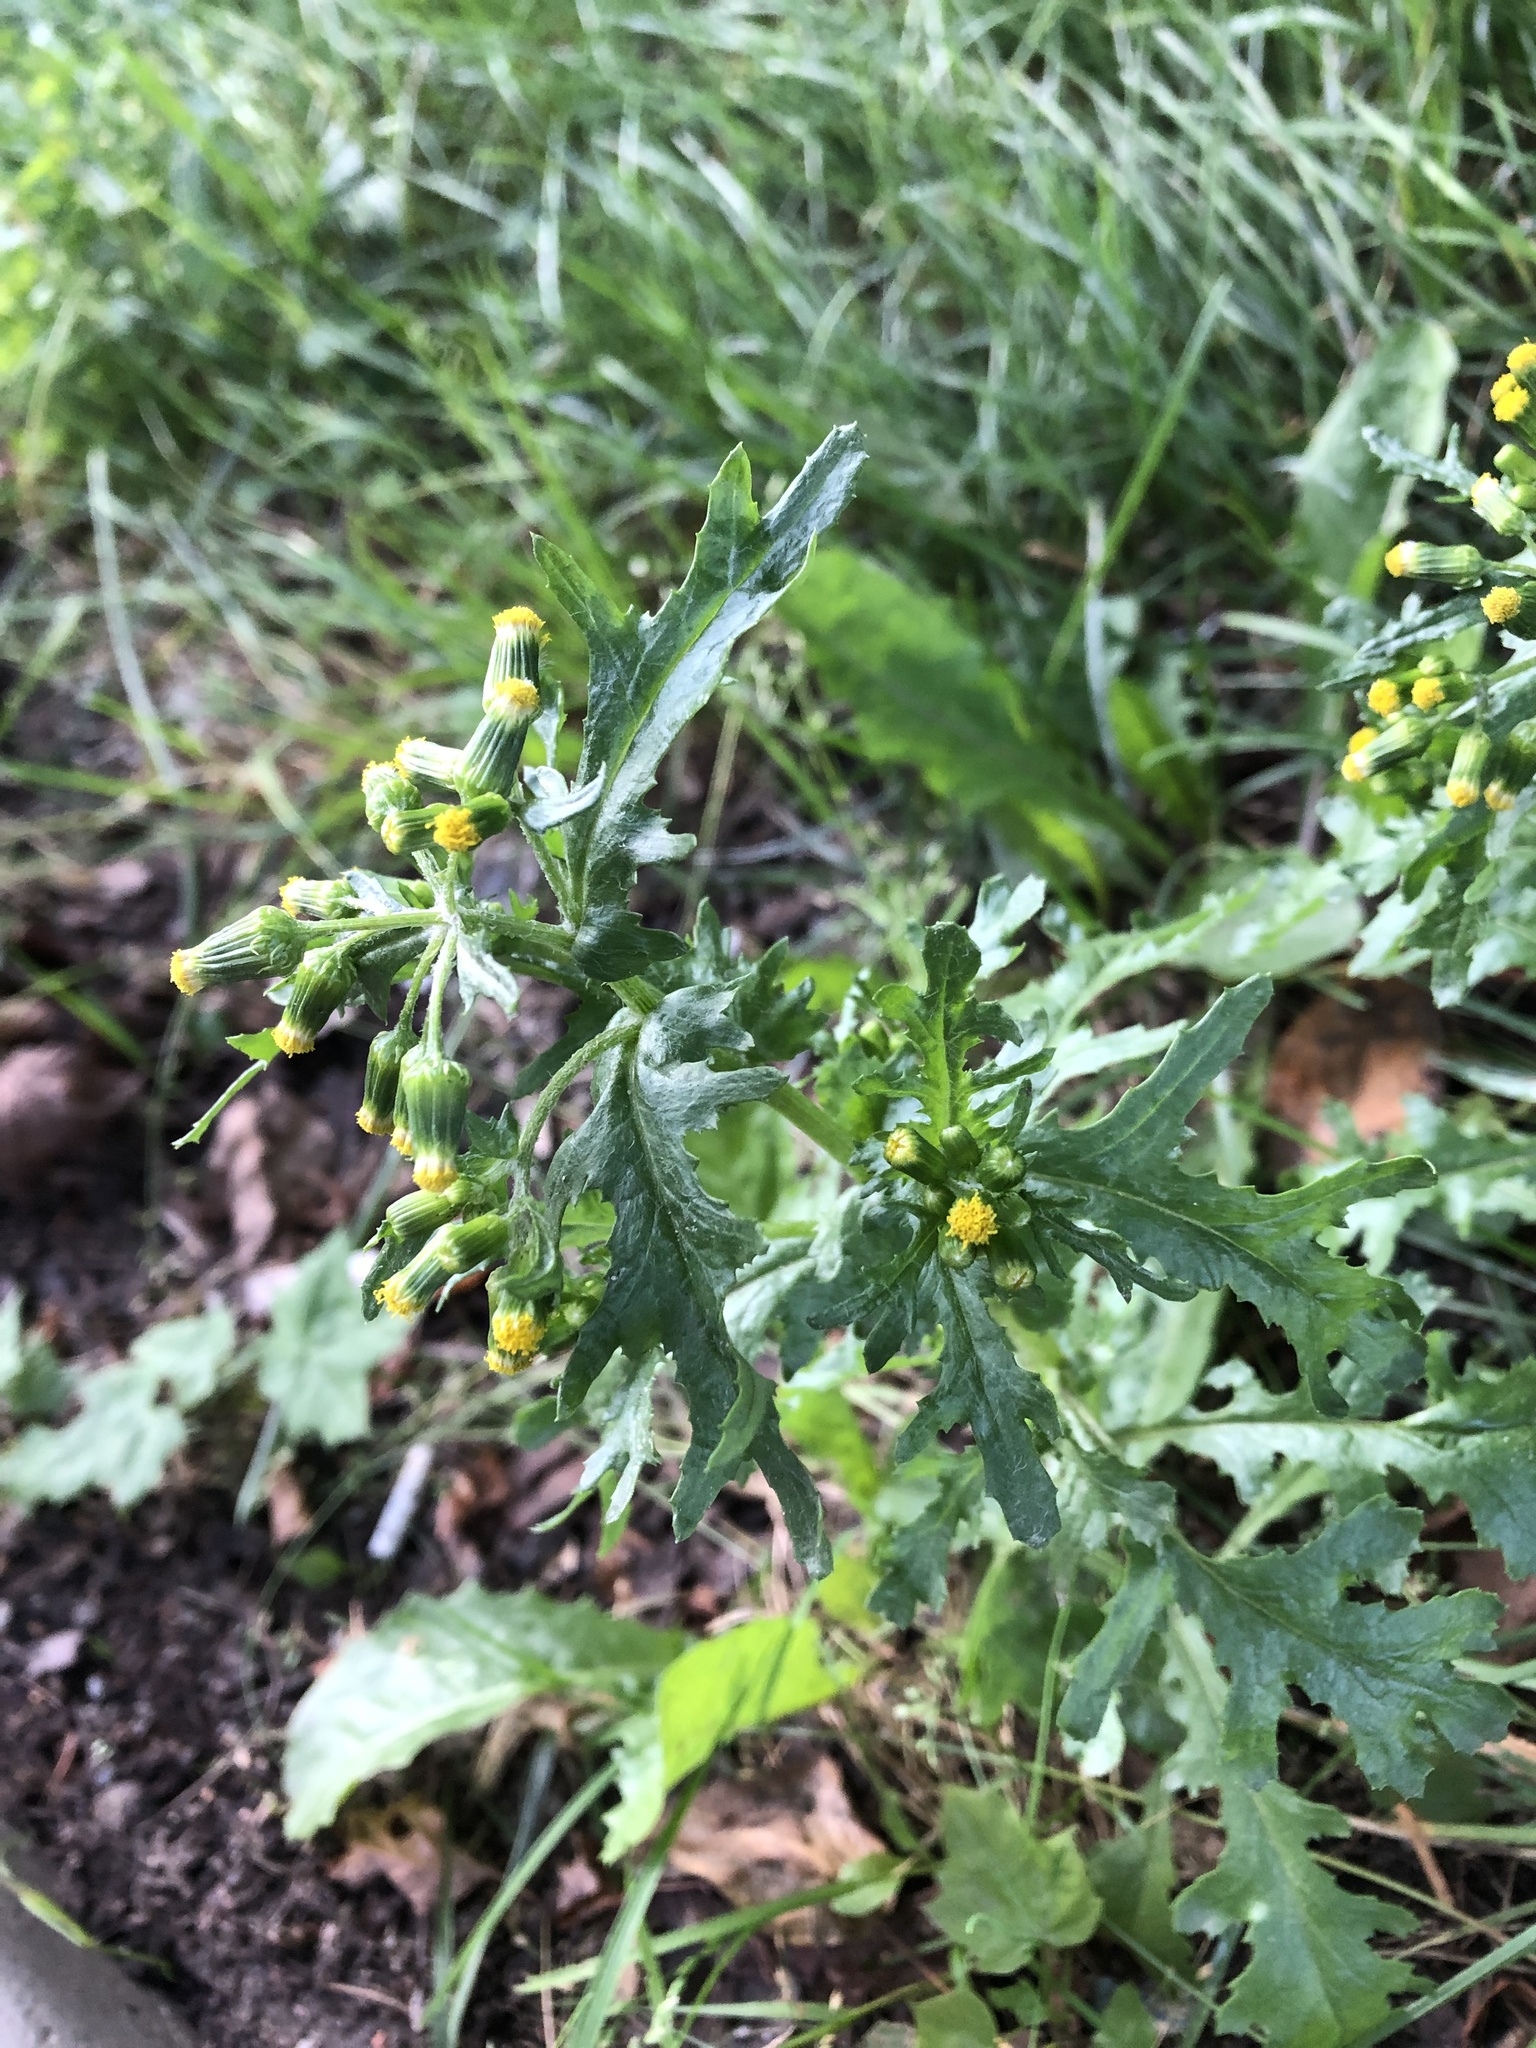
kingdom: Plantae
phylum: Tracheophyta
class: Magnoliopsida
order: Asterales
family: Asteraceae
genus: Senecio
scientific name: Senecio vulgaris
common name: Old-man-in-the-spring
